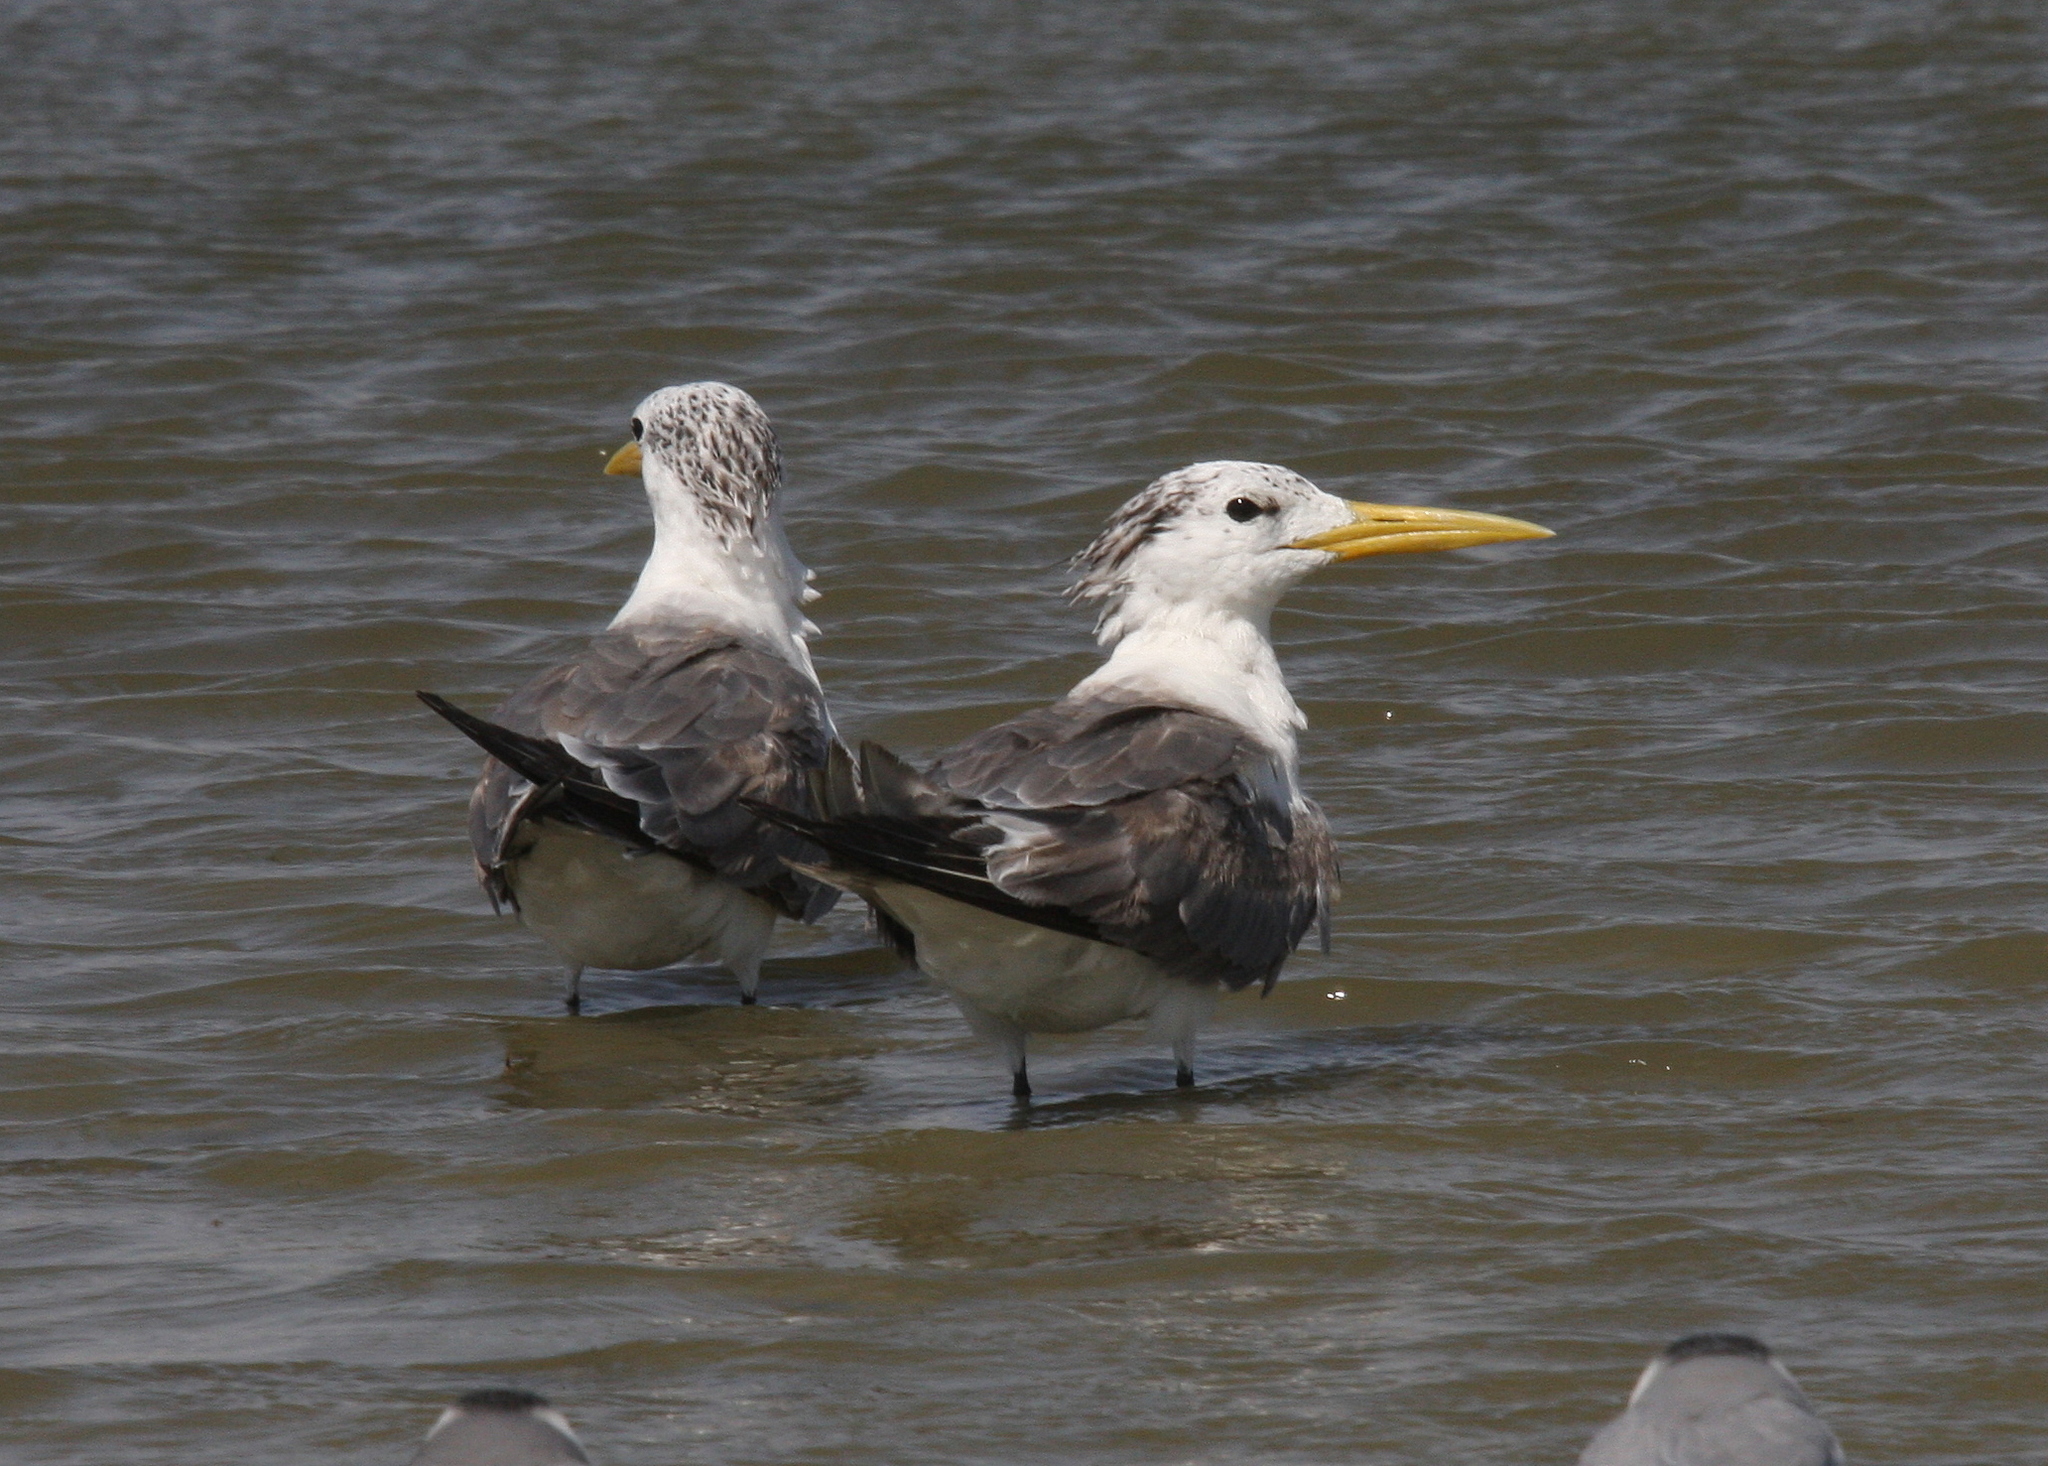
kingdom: Animalia
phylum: Chordata
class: Aves
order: Charadriiformes
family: Laridae
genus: Thalasseus
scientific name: Thalasseus bergii
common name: Greater crested tern
